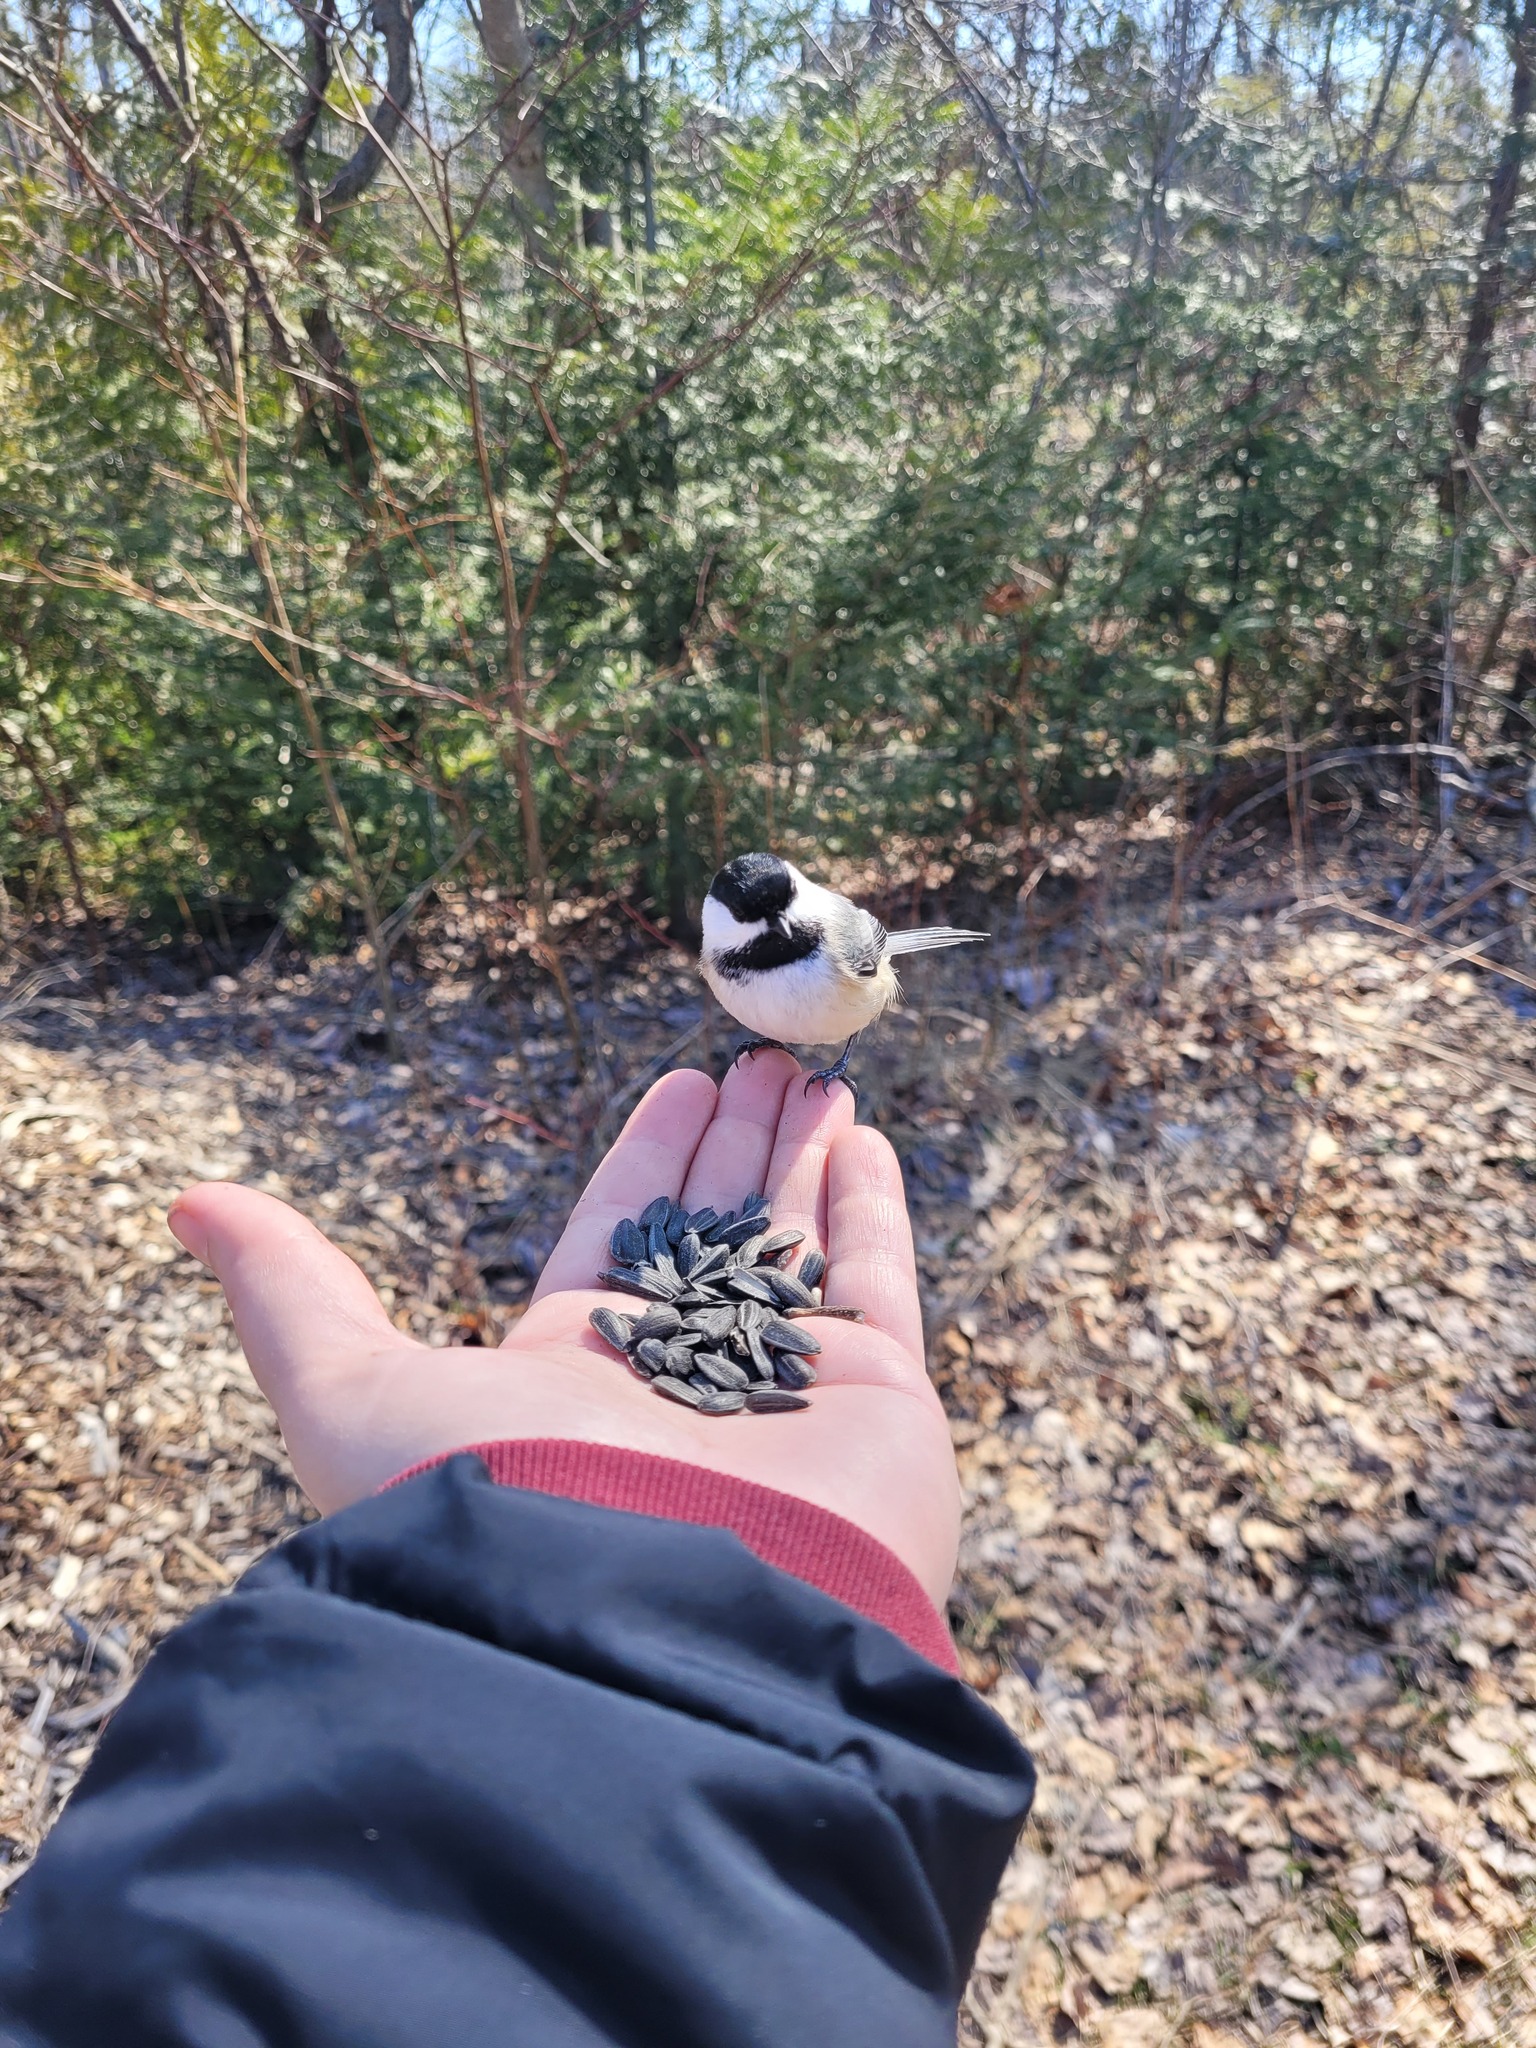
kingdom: Animalia
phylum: Chordata
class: Aves
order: Passeriformes
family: Paridae
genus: Poecile
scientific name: Poecile atricapillus
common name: Black-capped chickadee
